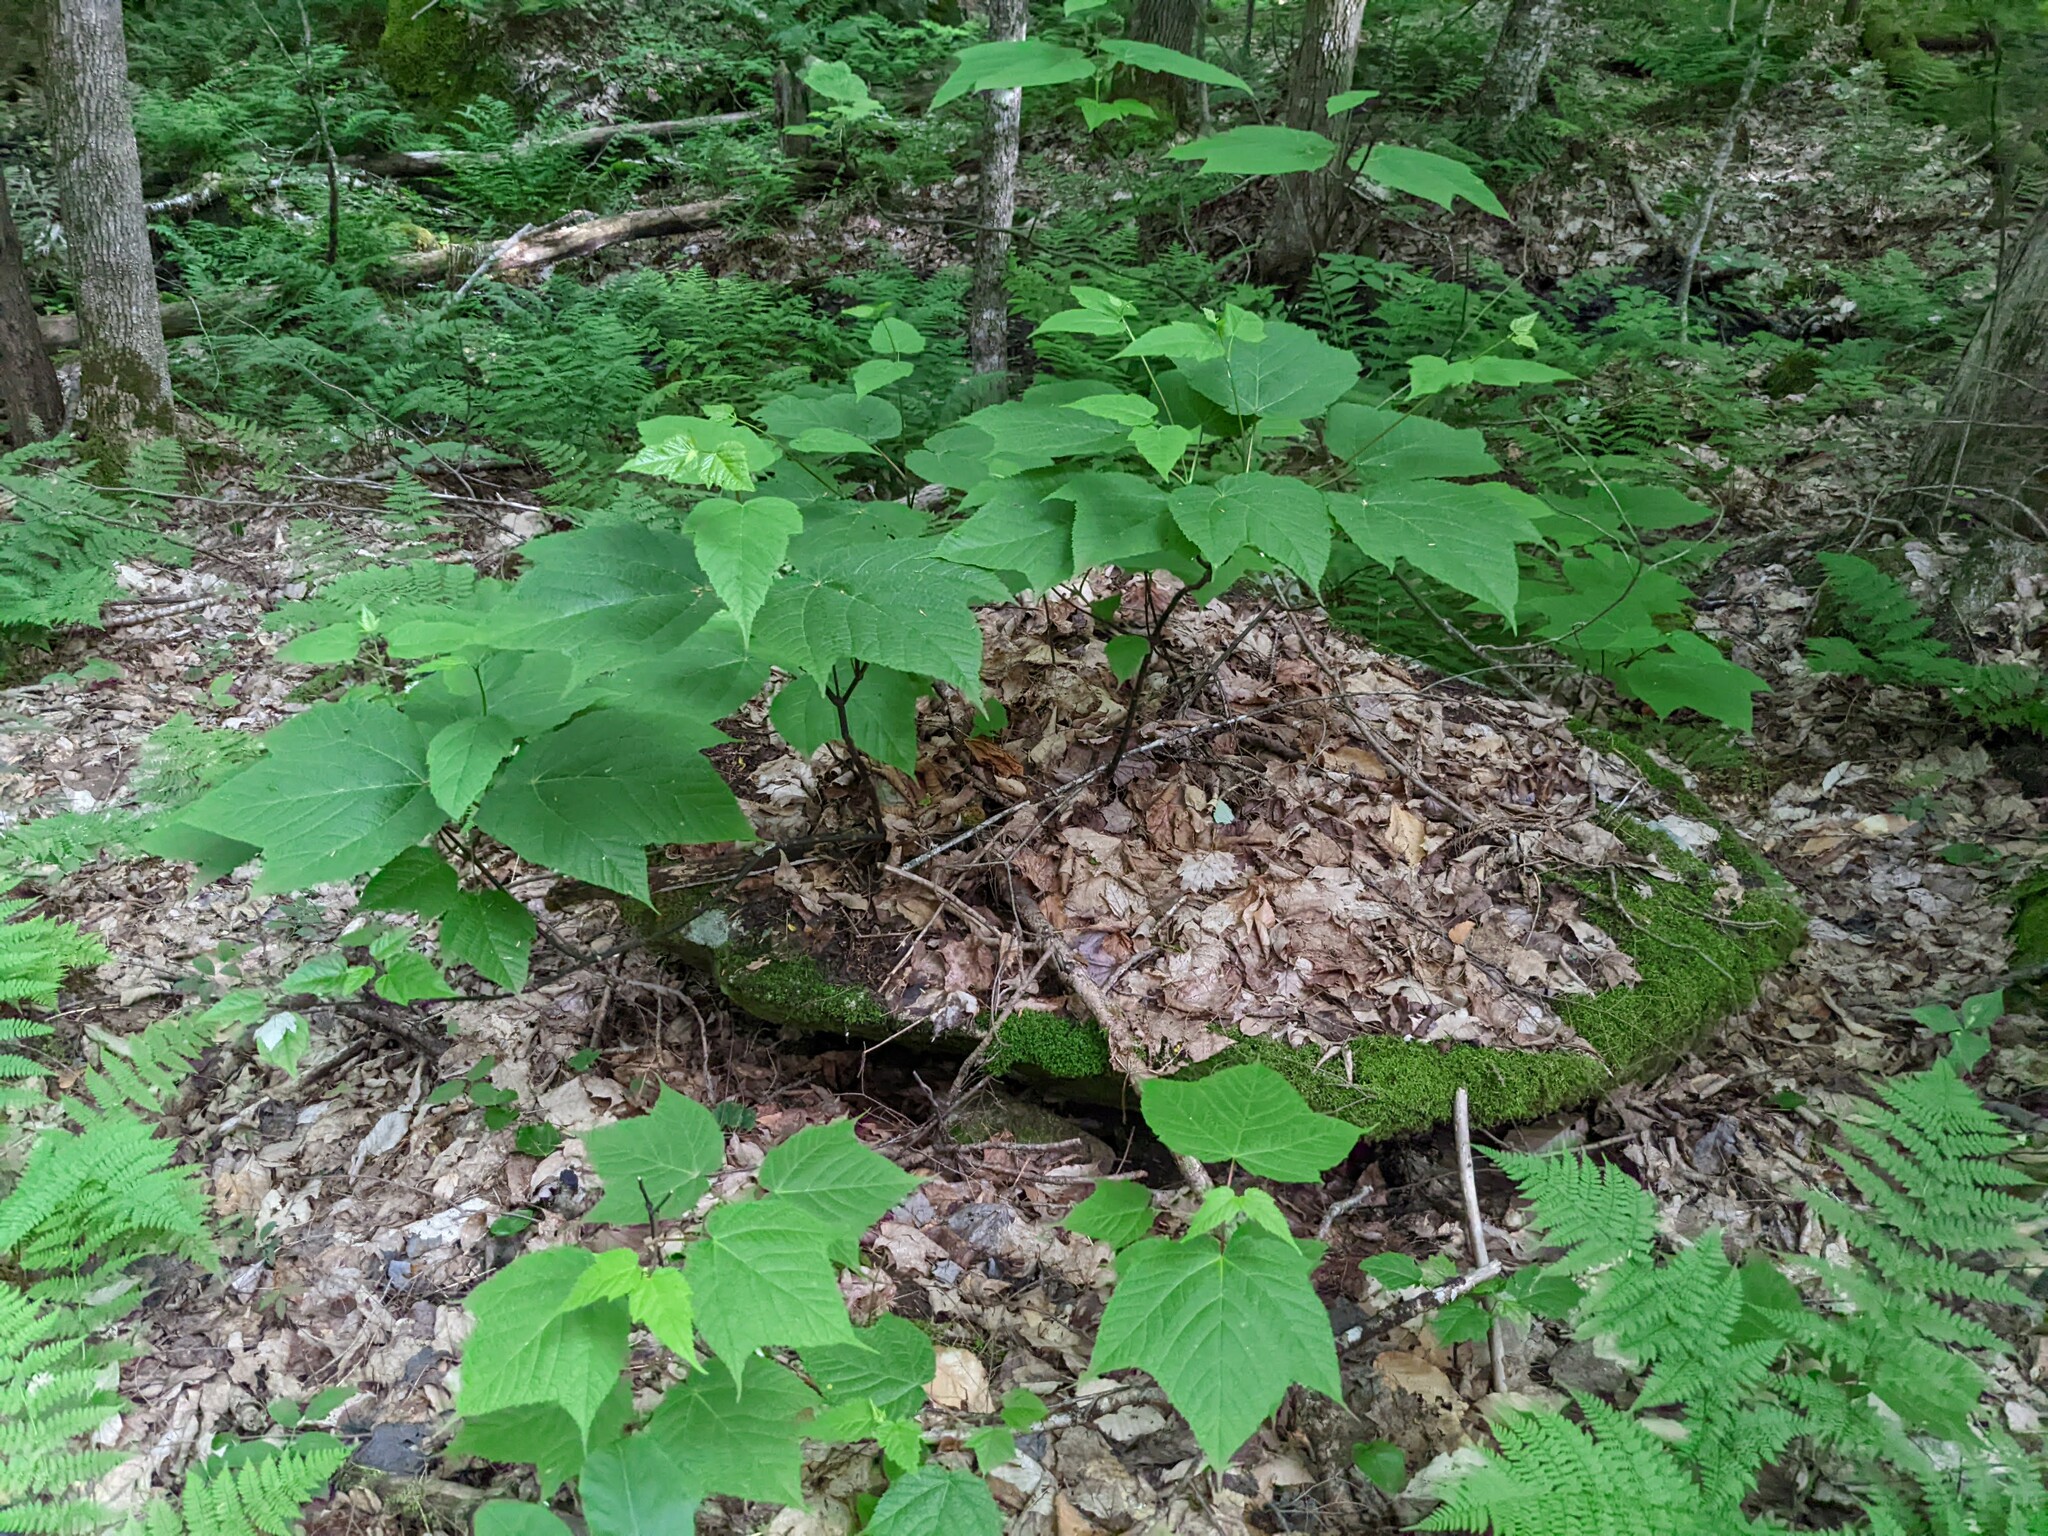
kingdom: Plantae
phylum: Tracheophyta
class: Magnoliopsida
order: Sapindales
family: Sapindaceae
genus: Acer
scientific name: Acer pensylvanicum
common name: Moosewood
